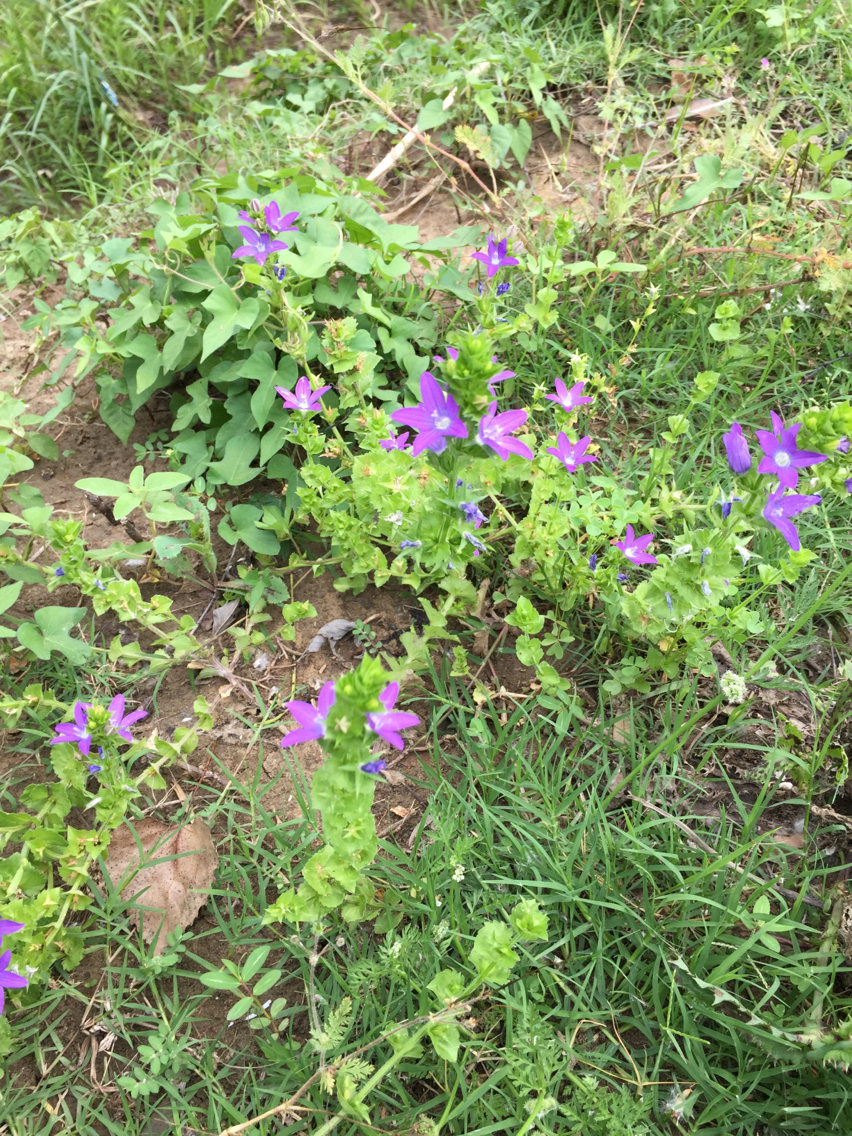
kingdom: Plantae
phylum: Tracheophyta
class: Magnoliopsida
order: Asterales
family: Campanulaceae
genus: Triodanis
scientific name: Triodanis perfoliata
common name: Clasping venus' looking-glass
